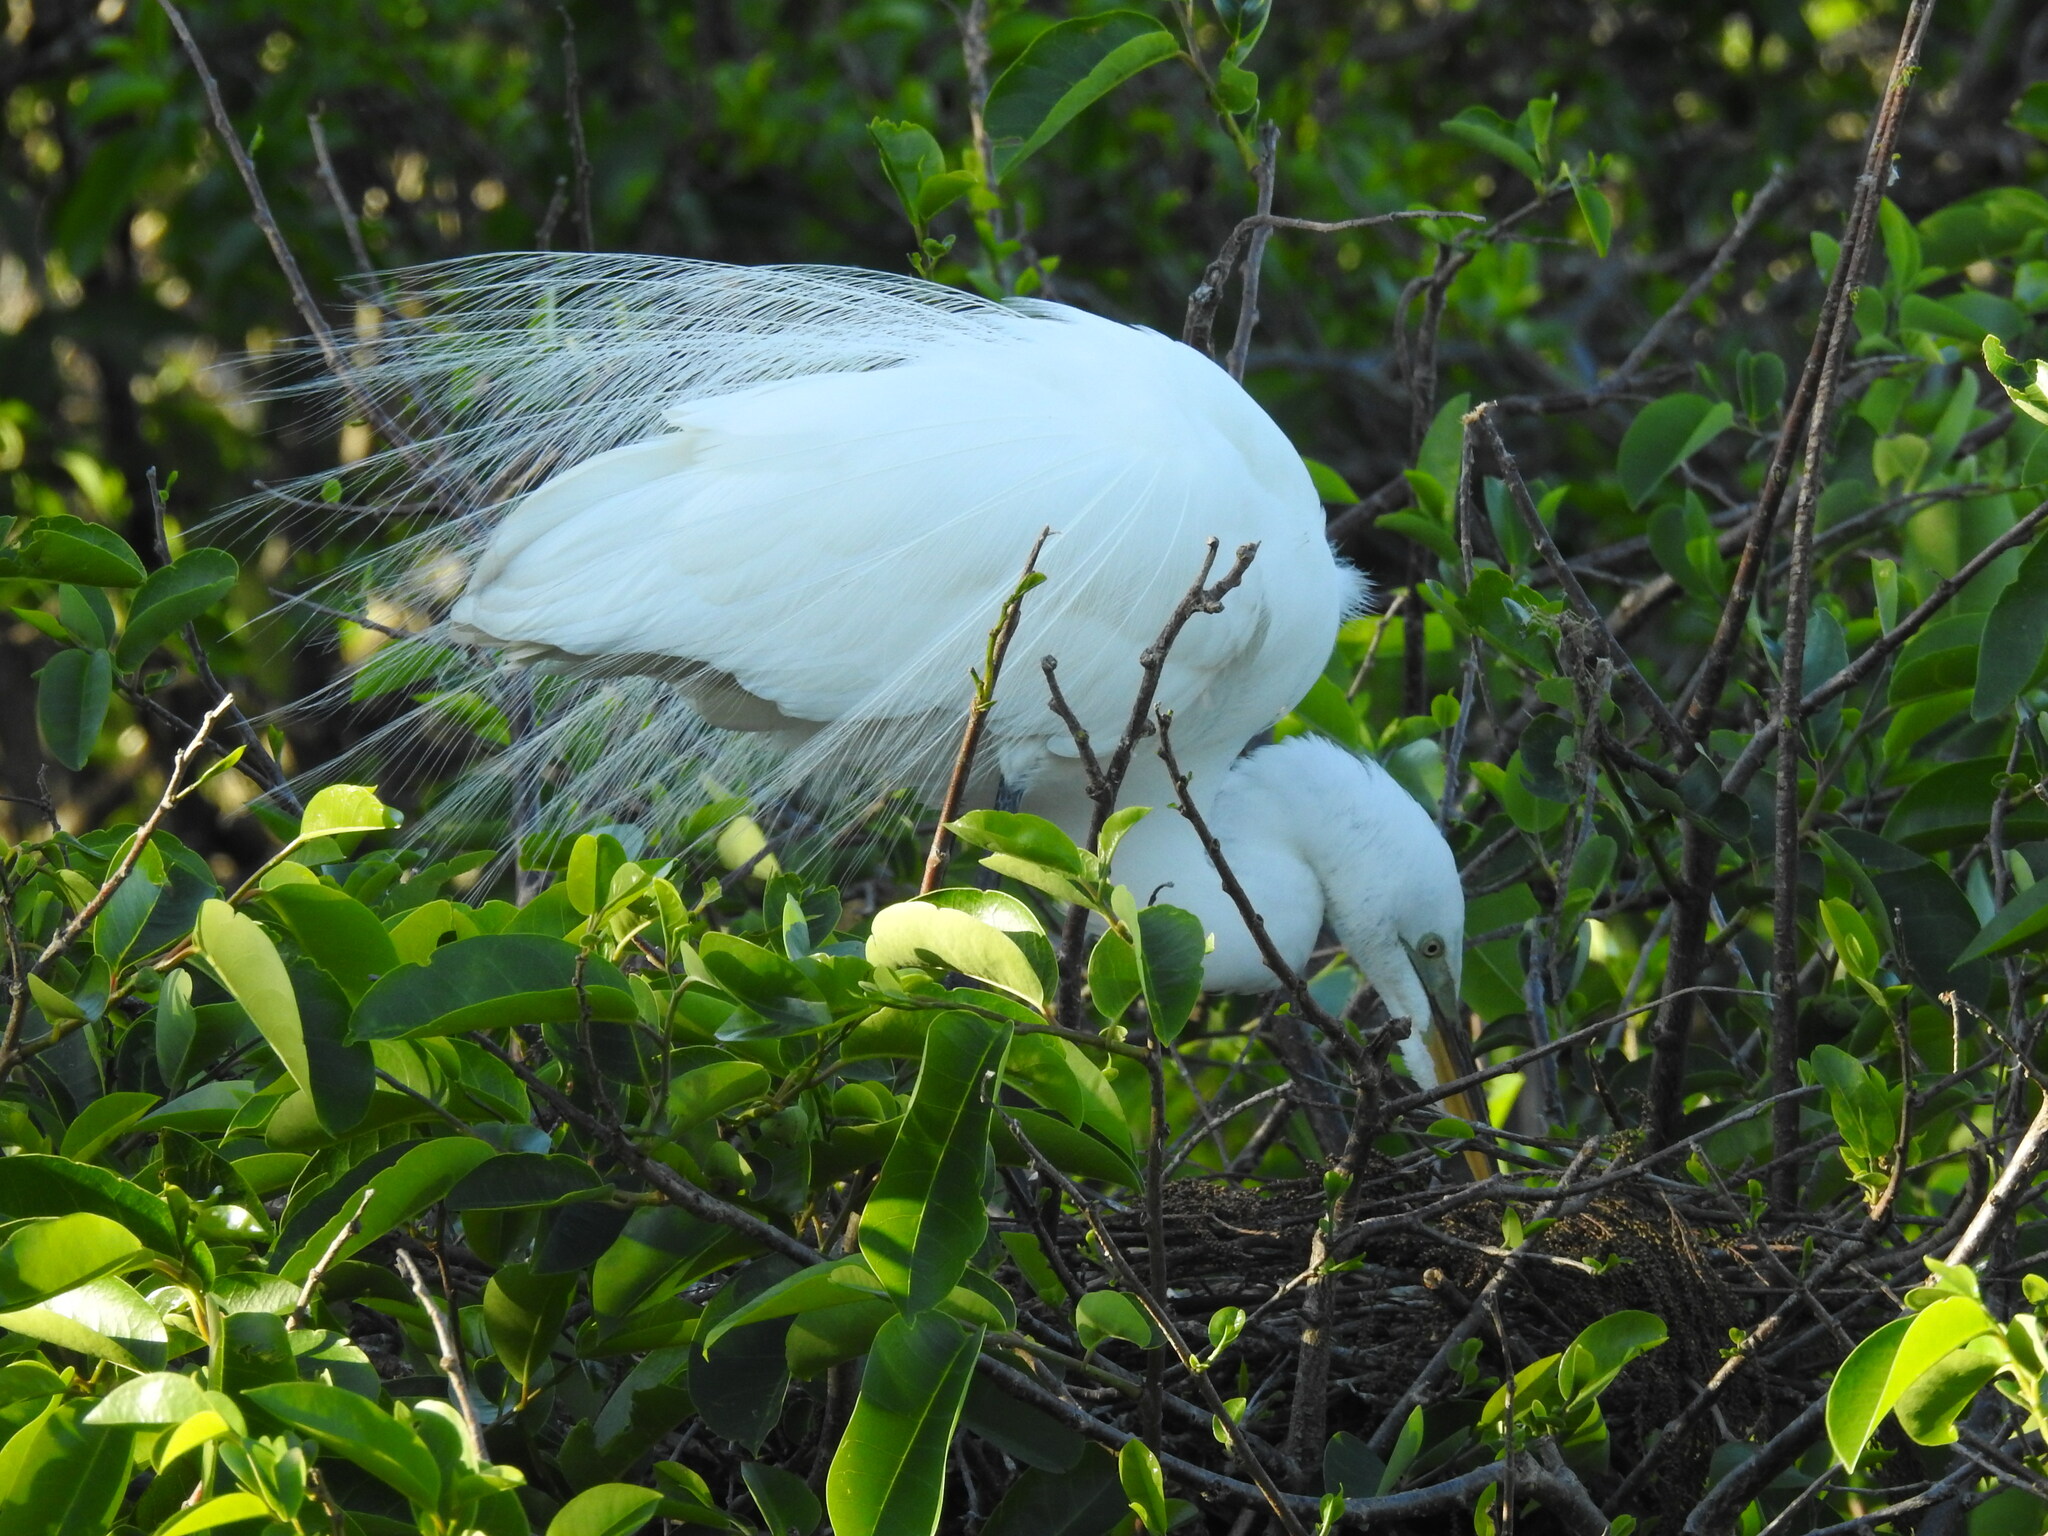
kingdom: Animalia
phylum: Chordata
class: Aves
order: Pelecaniformes
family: Ardeidae
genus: Ardea
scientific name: Ardea alba
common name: Great egret
